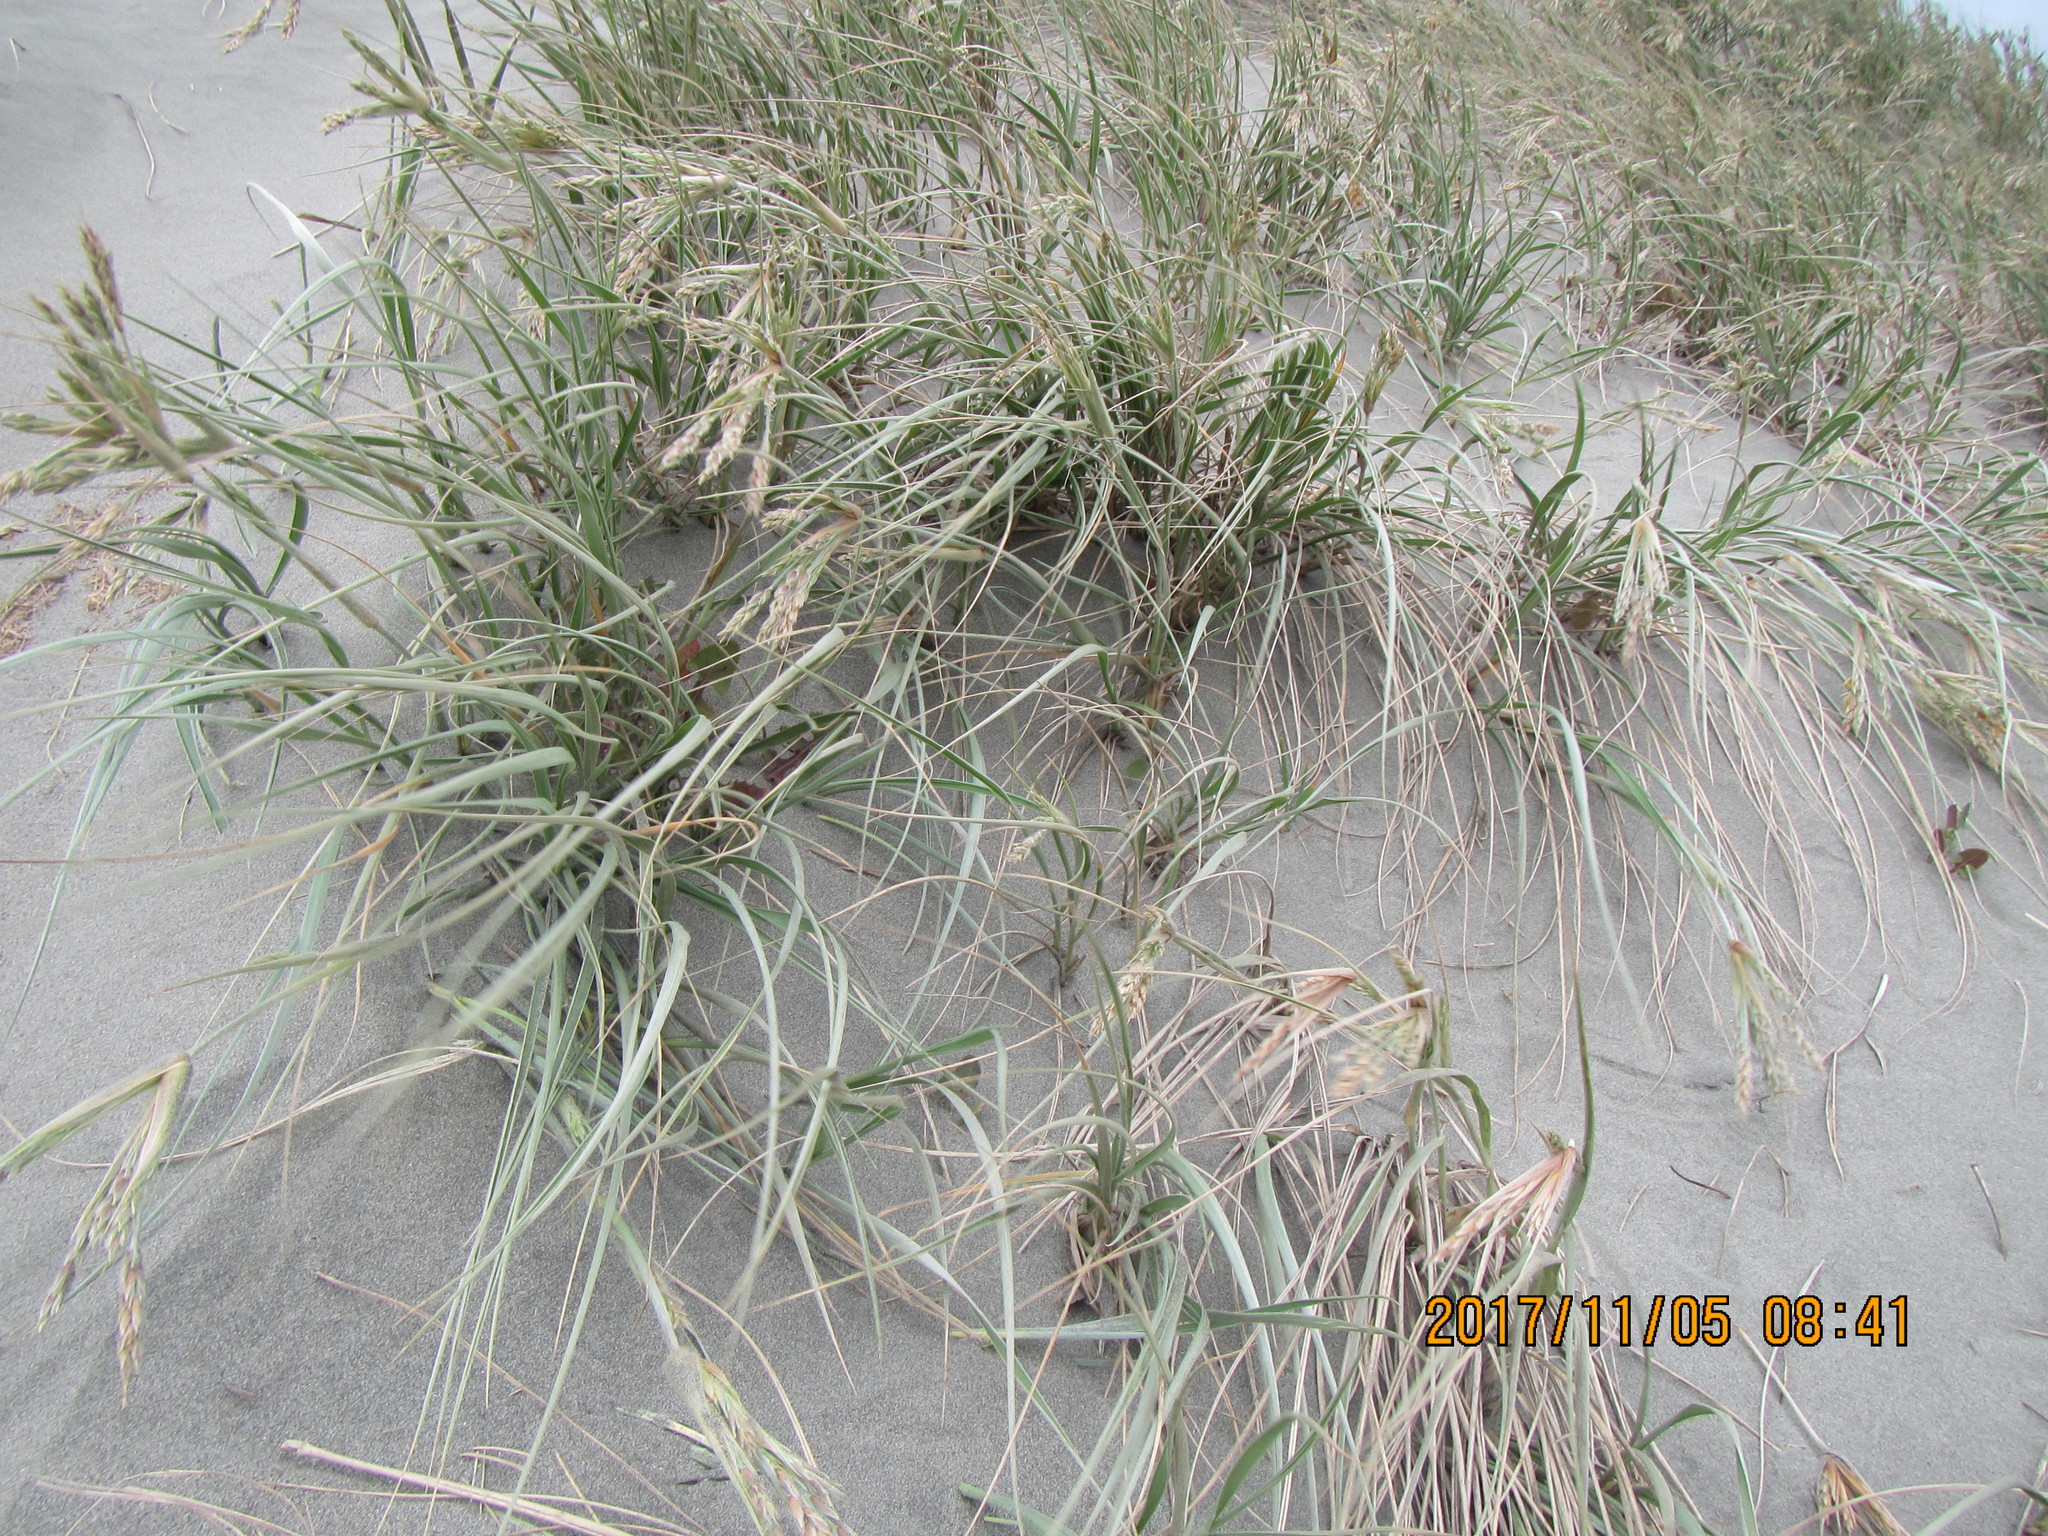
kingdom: Plantae
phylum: Tracheophyta
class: Liliopsida
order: Poales
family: Poaceae
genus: Spinifex
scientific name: Spinifex sericeus
